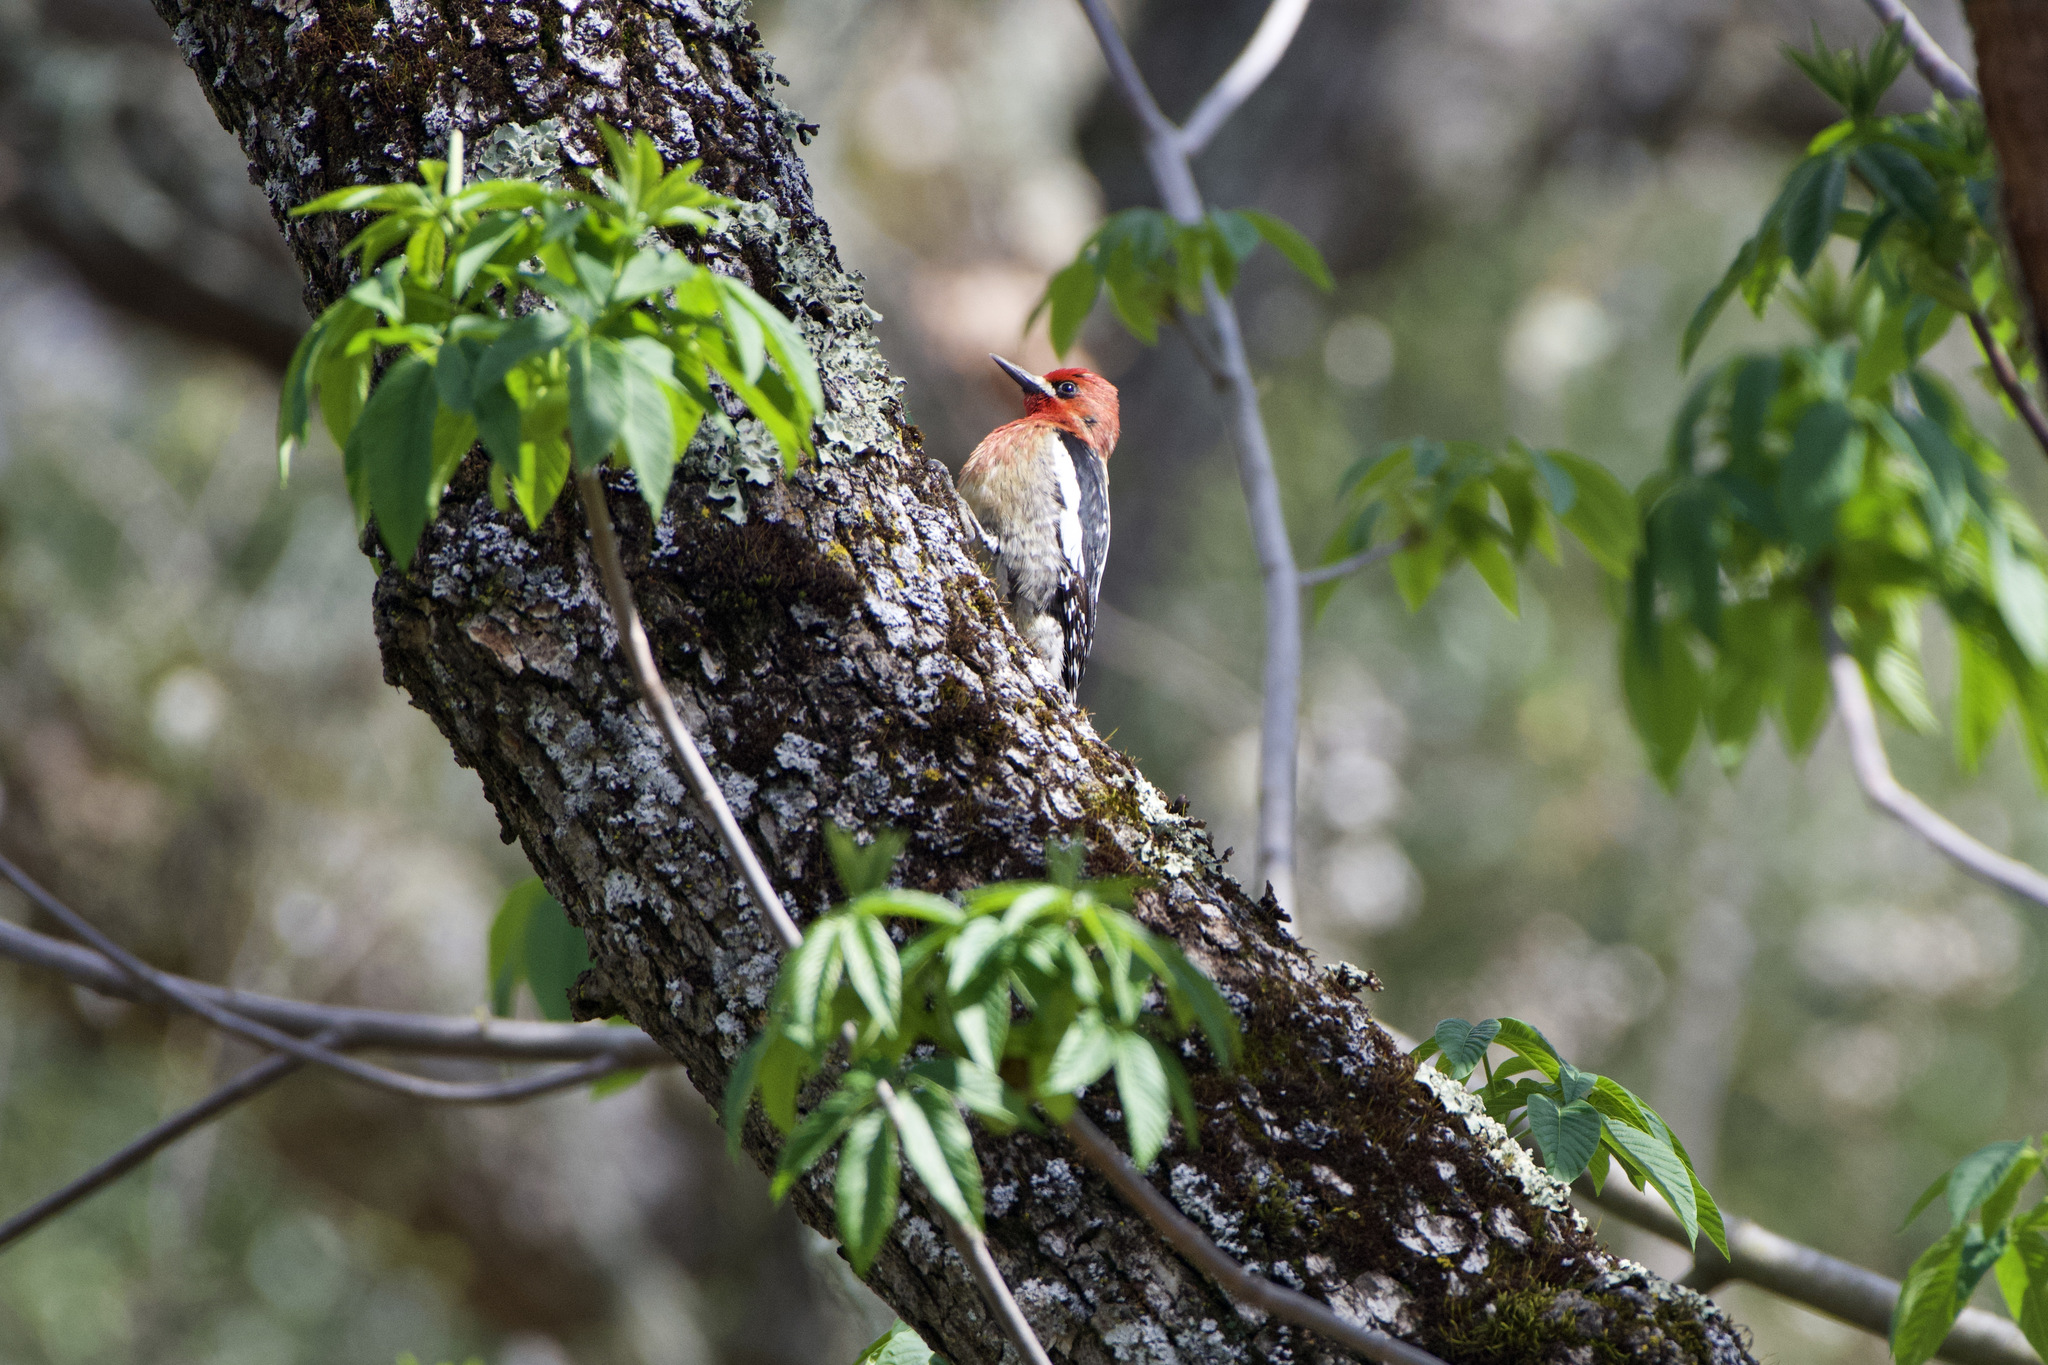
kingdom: Animalia
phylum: Chordata
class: Aves
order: Piciformes
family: Picidae
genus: Sphyrapicus
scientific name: Sphyrapicus ruber
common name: Red-breasted sapsucker
